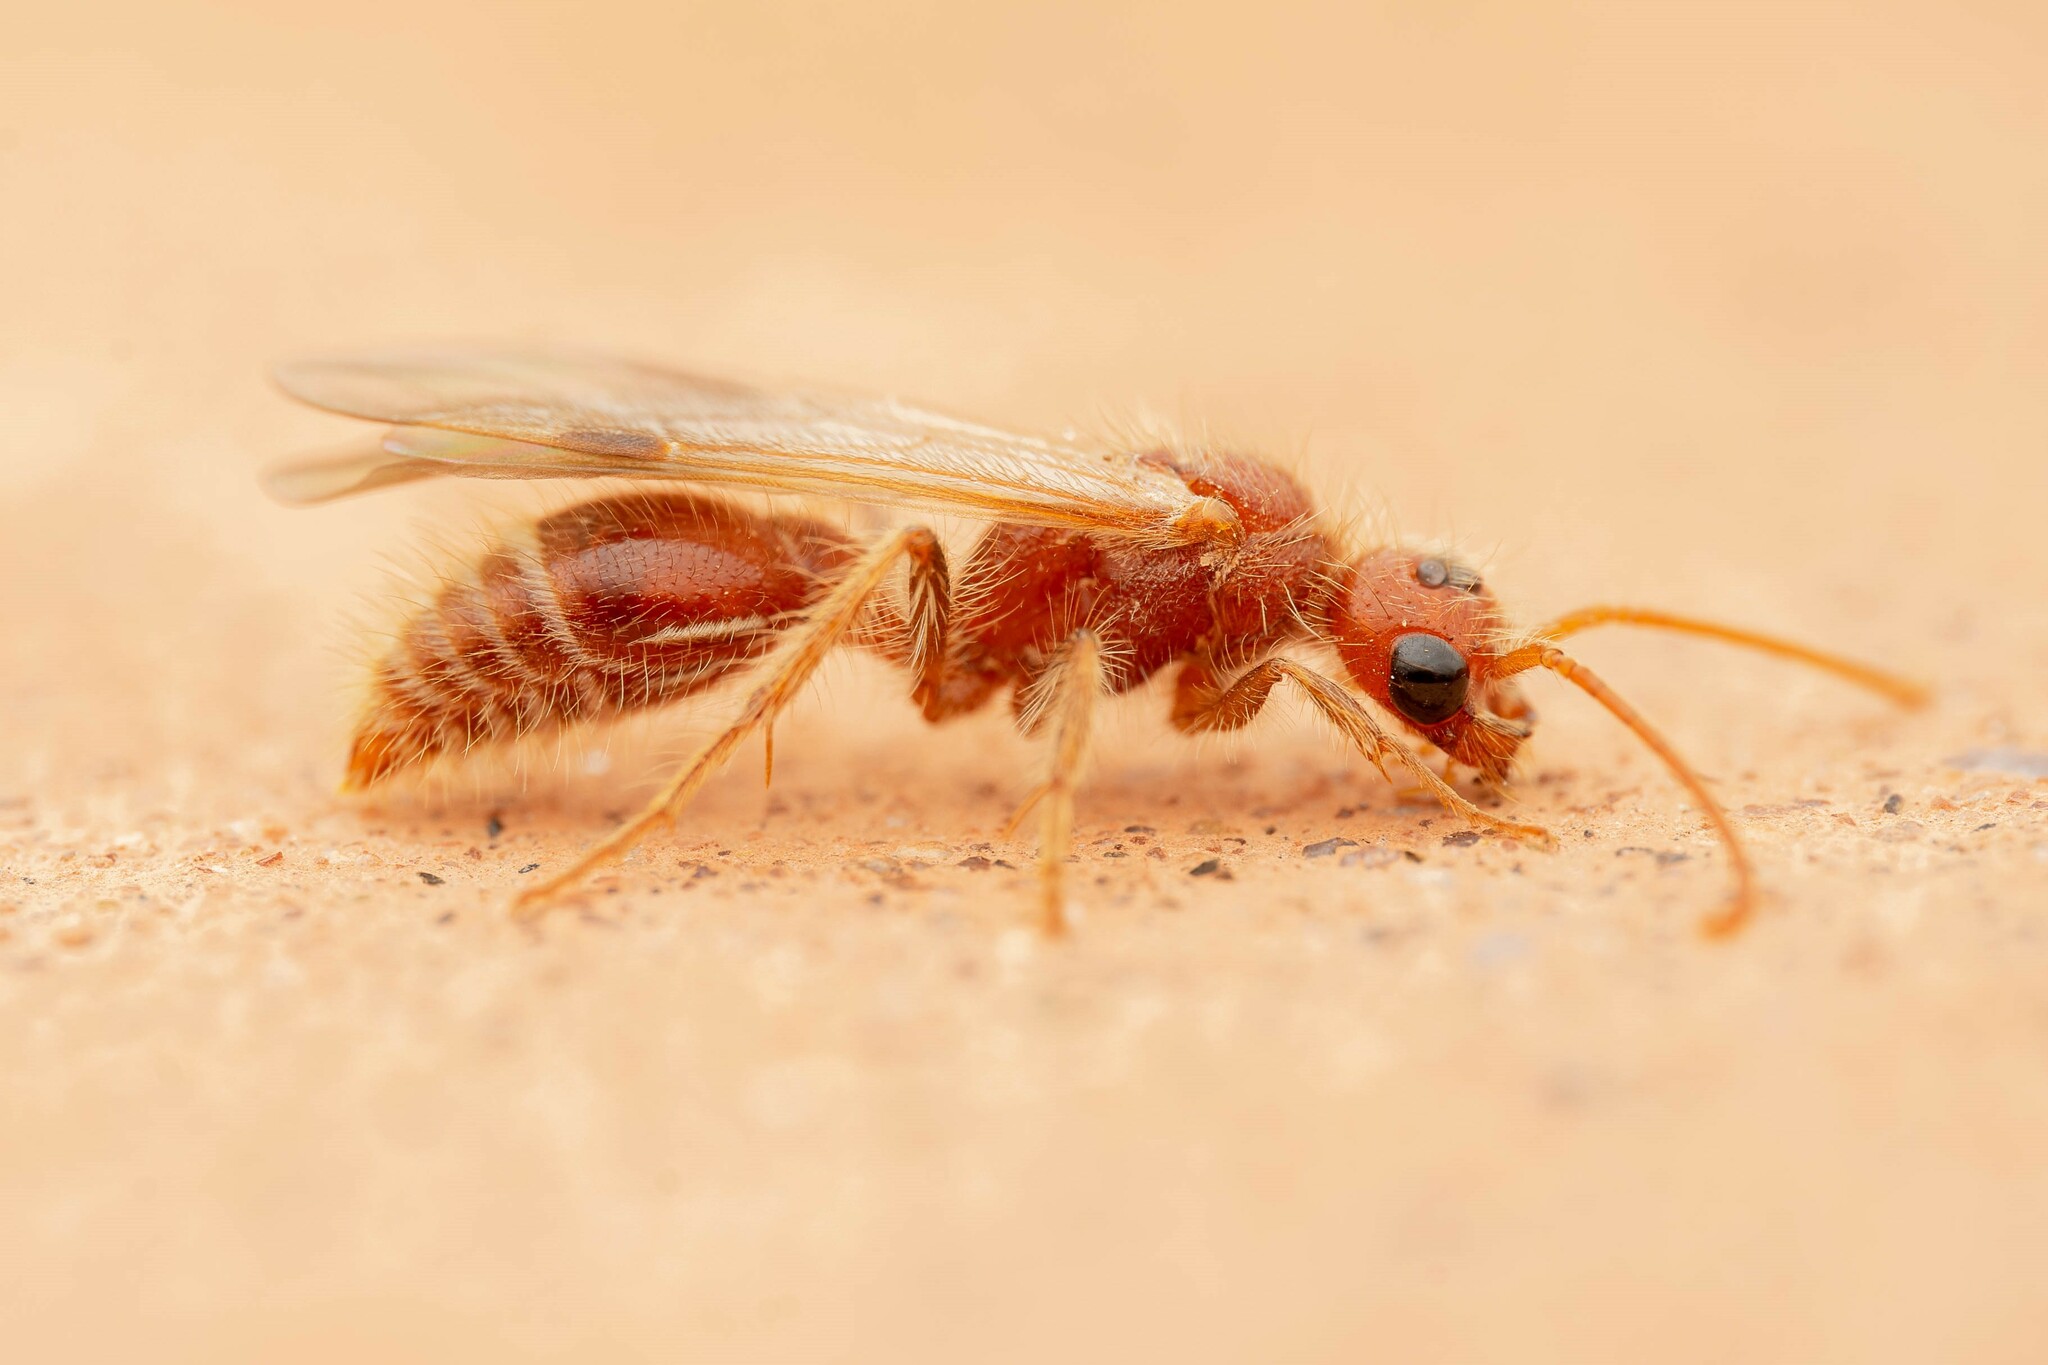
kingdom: Animalia
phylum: Arthropoda
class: Insecta
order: Hymenoptera
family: Mutillidae
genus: Odontophotopsis
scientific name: Odontophotopsis
